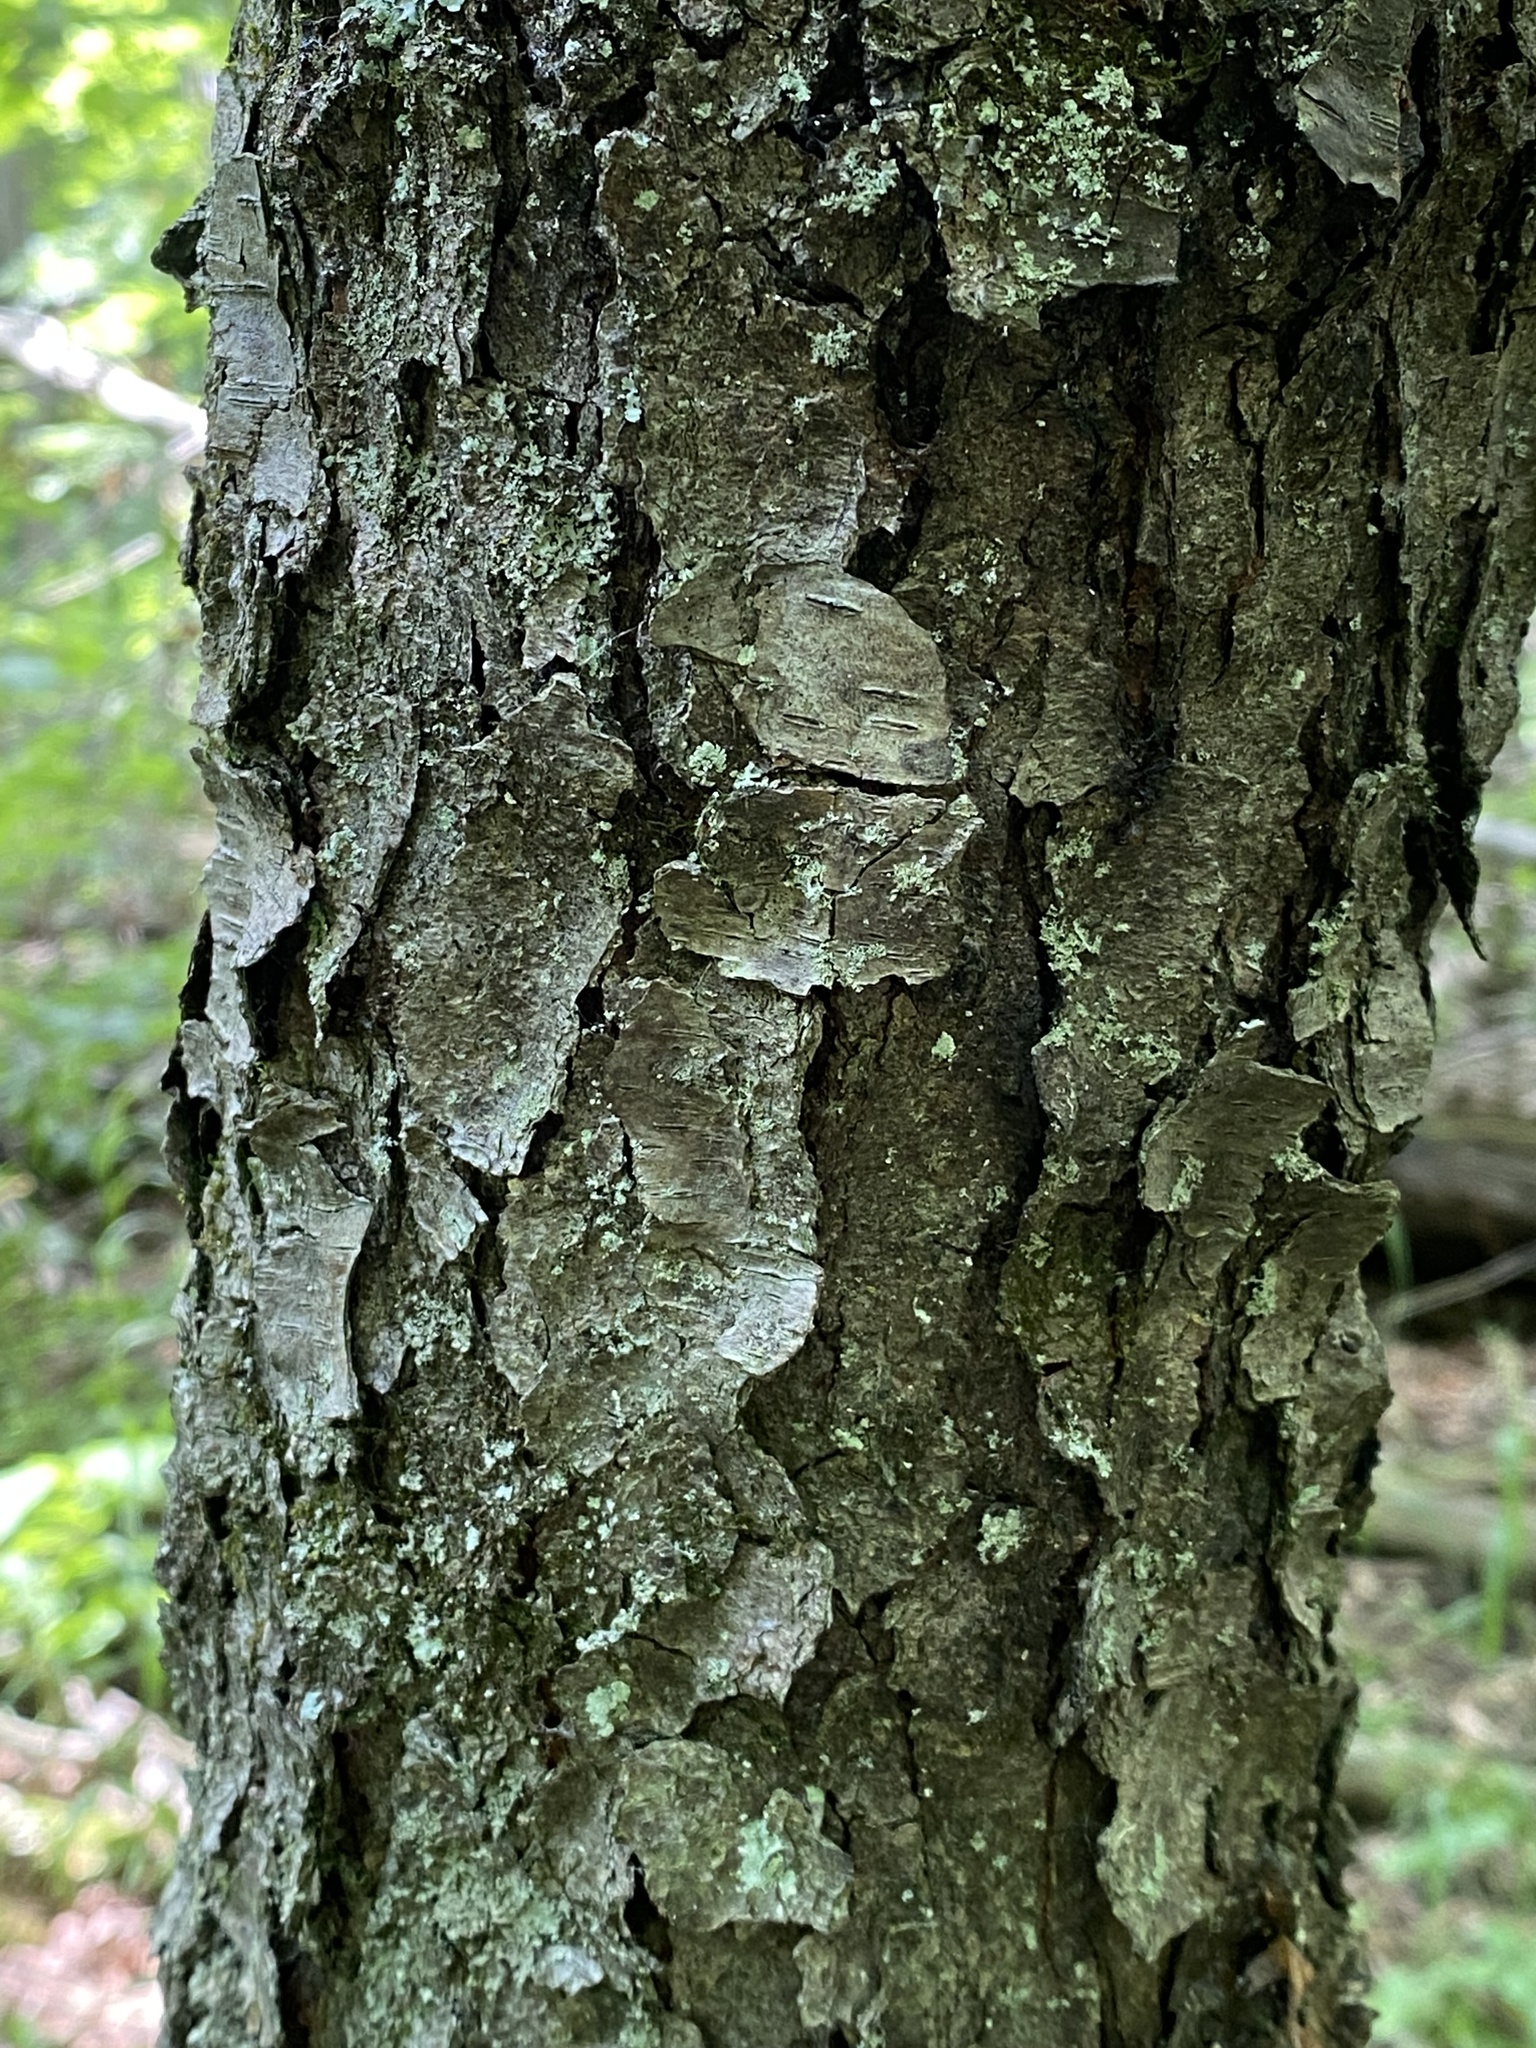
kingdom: Plantae
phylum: Tracheophyta
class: Magnoliopsida
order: Rosales
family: Rosaceae
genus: Prunus
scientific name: Prunus serotina
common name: Black cherry
